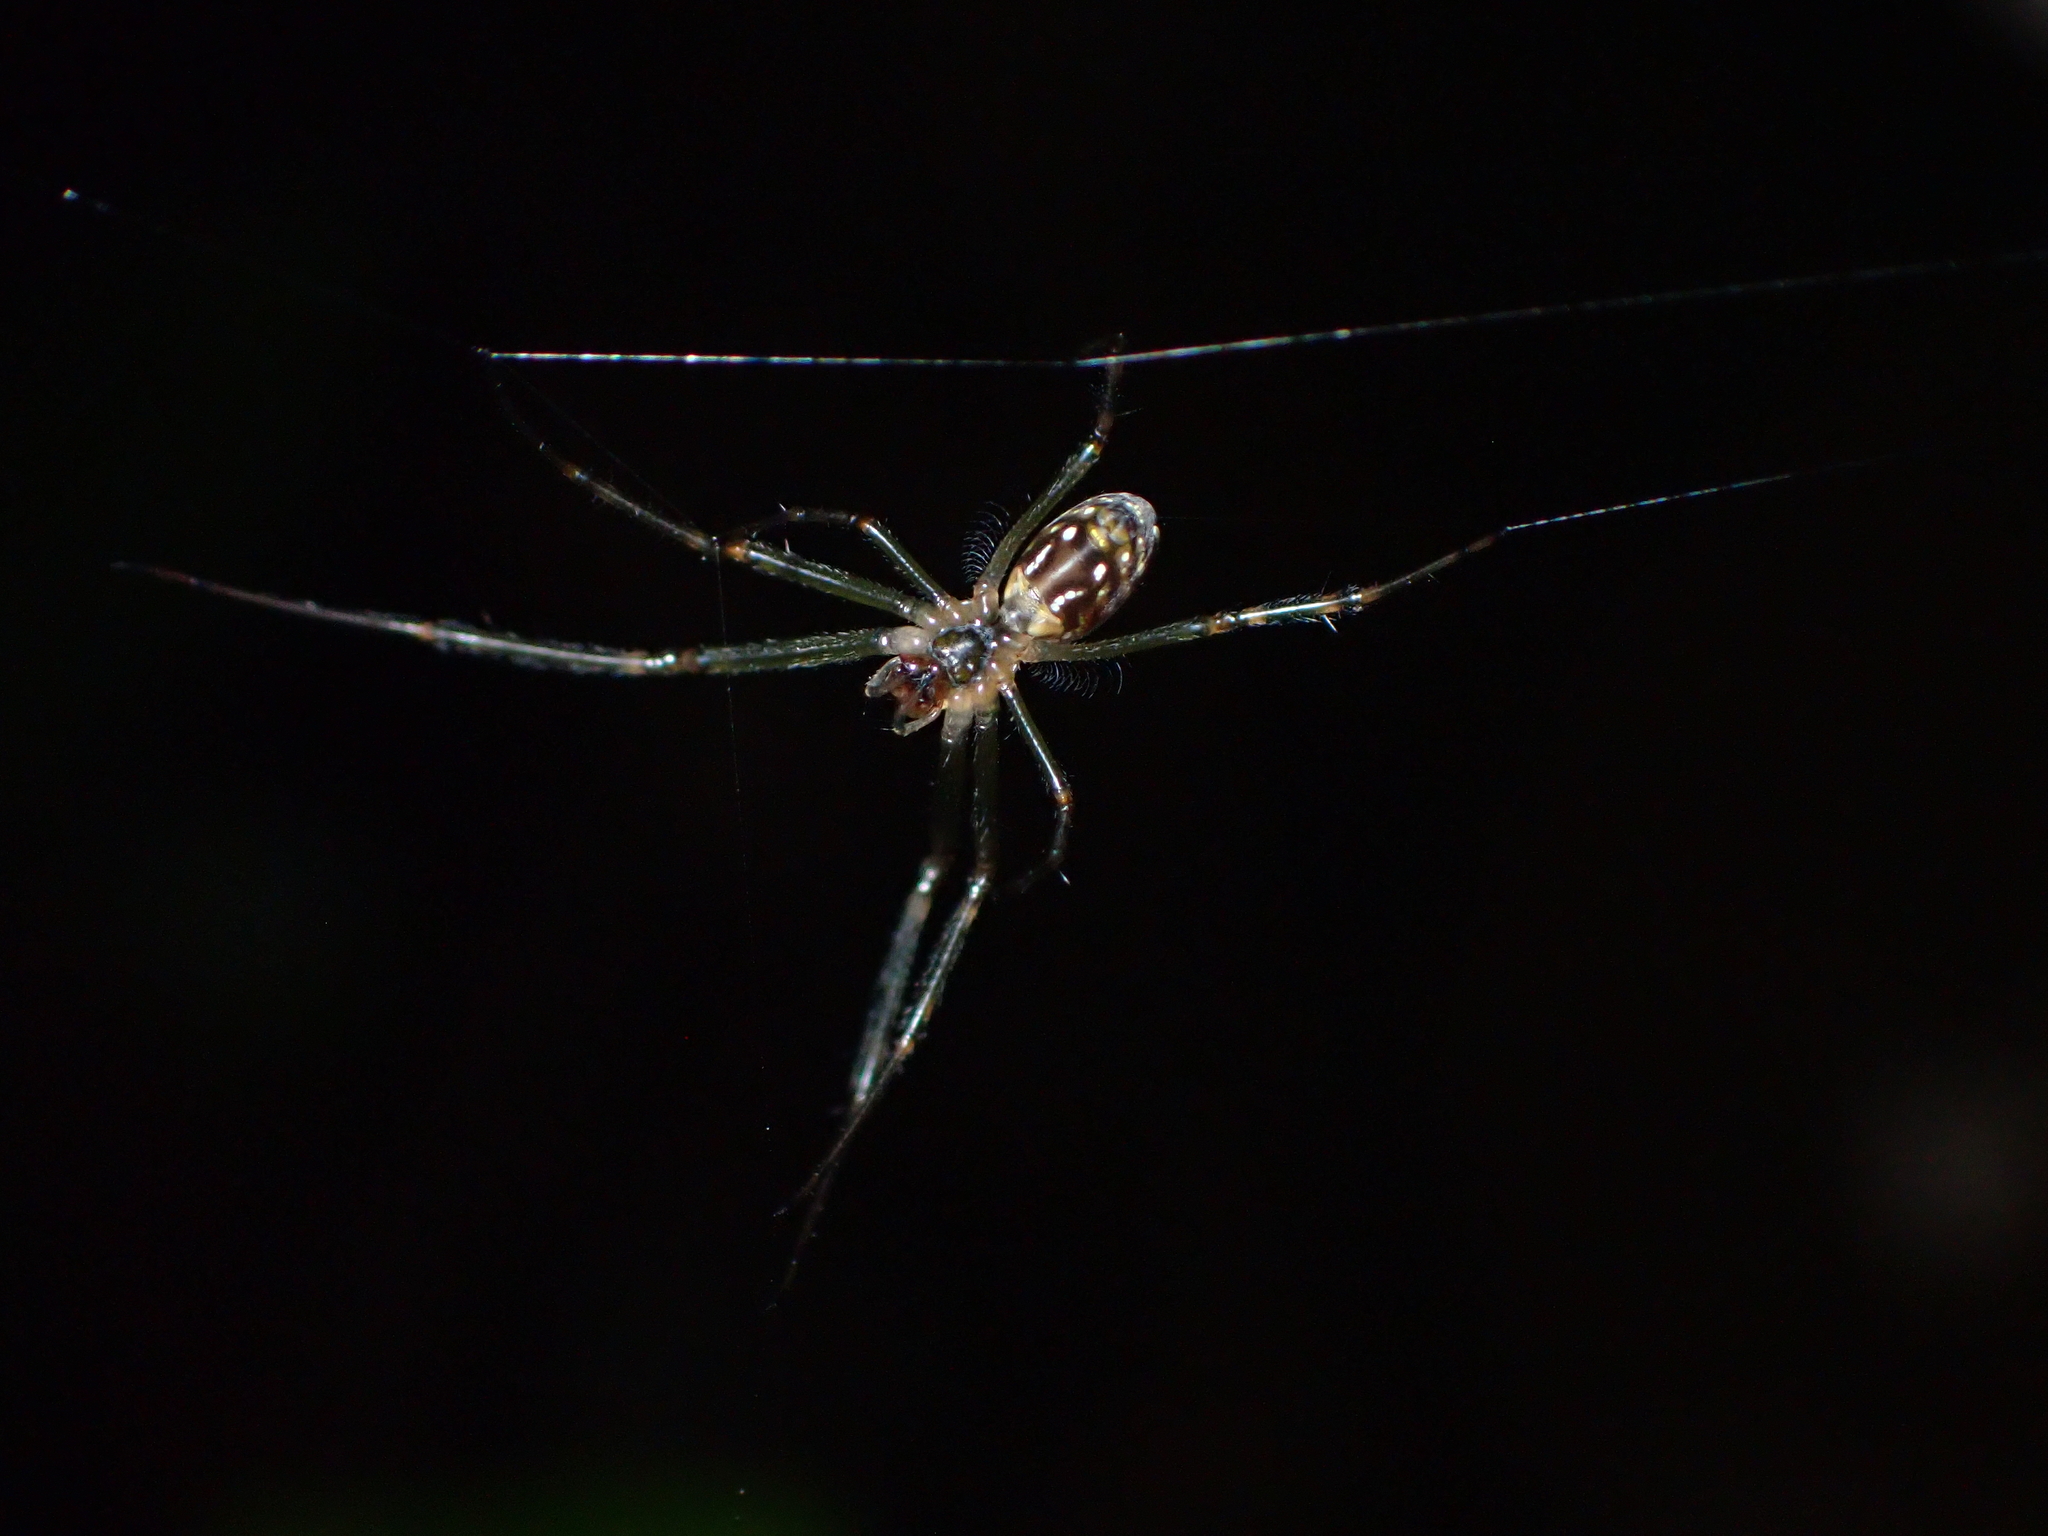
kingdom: Animalia
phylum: Arthropoda
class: Arachnida
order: Araneae
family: Tetragnathidae
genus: Leucauge
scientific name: Leucauge dromedaria
